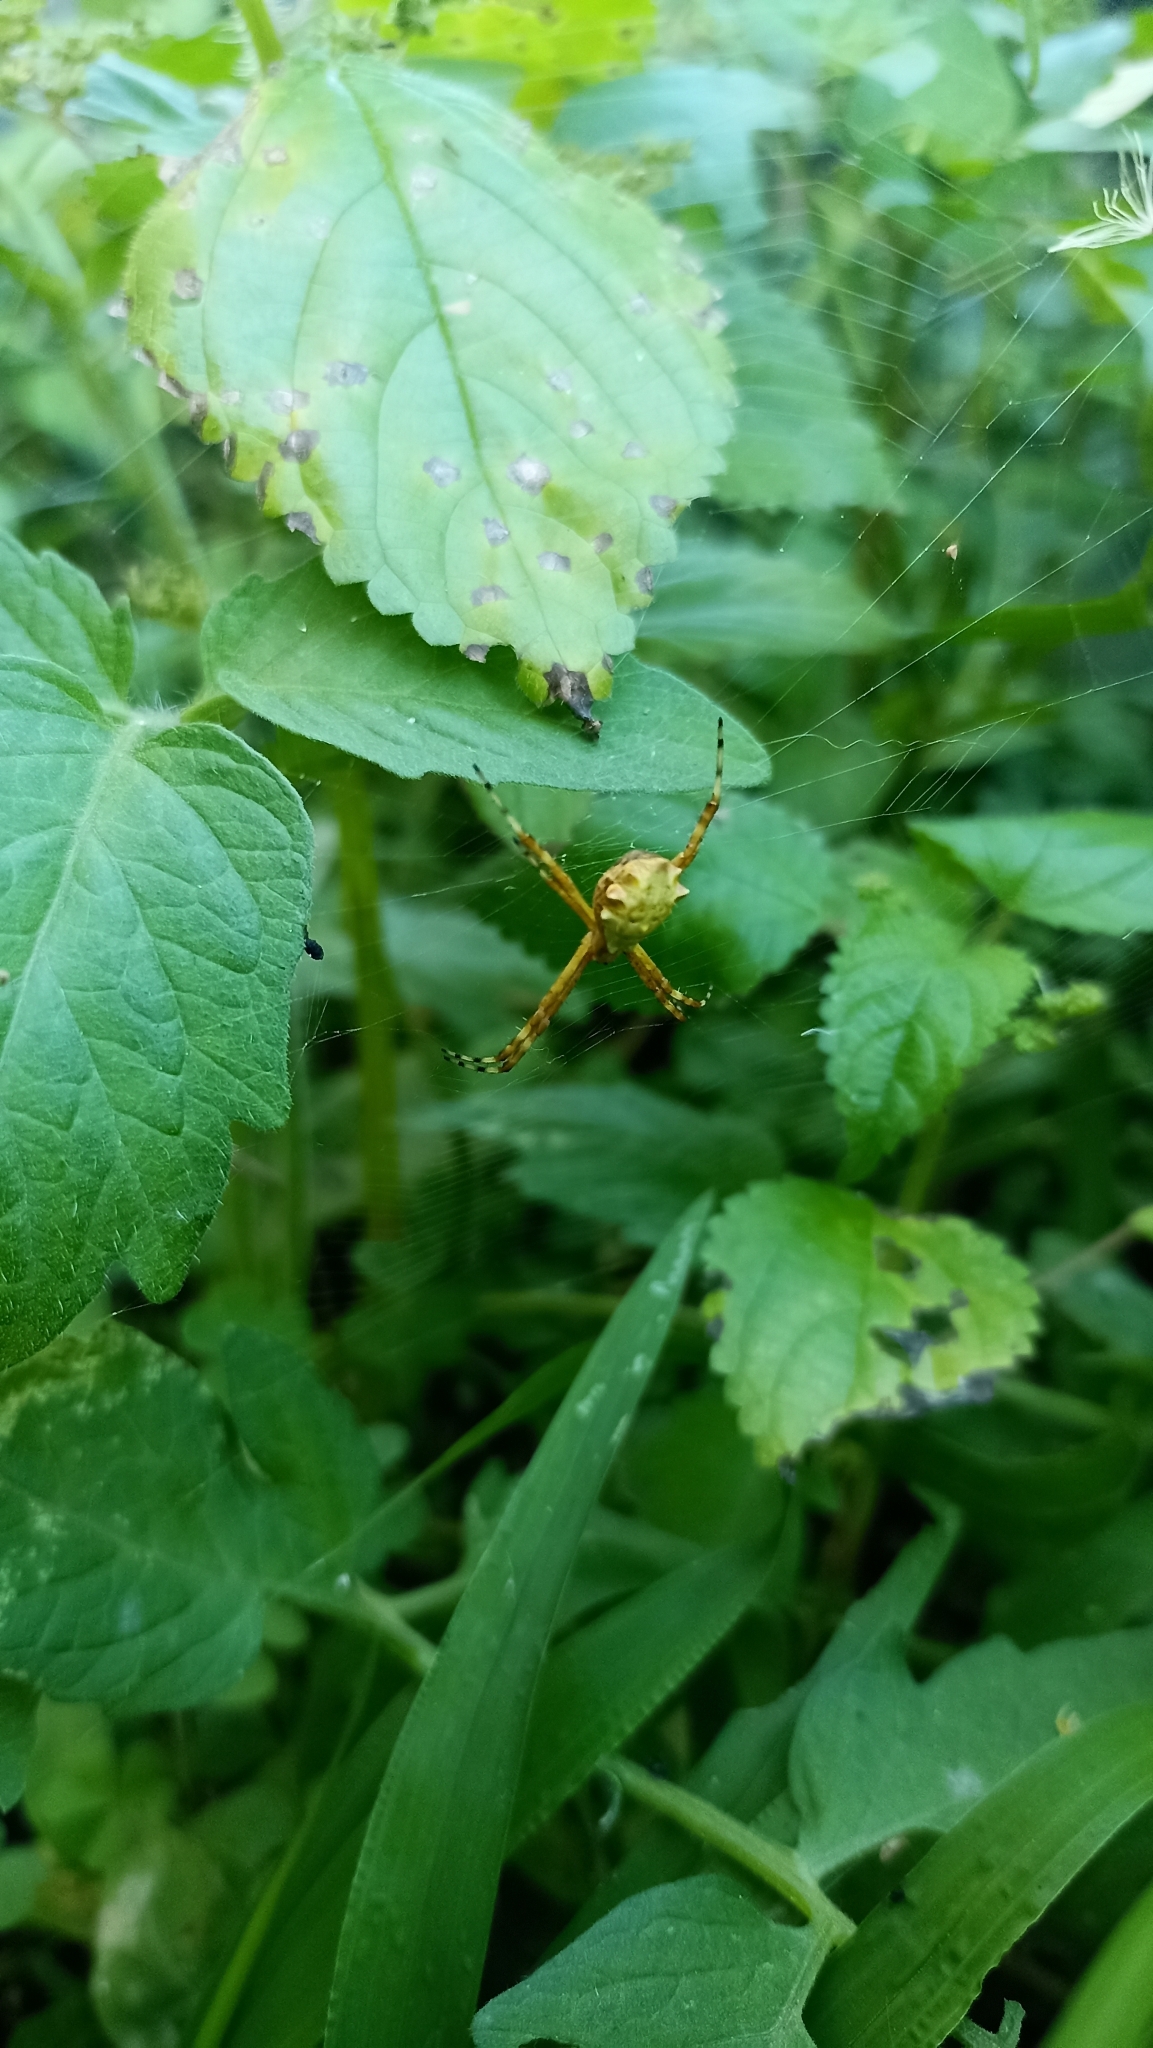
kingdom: Animalia
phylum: Arthropoda
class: Arachnida
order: Araneae
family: Araneidae
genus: Argiope
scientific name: Argiope argentata
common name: Orb weavers
